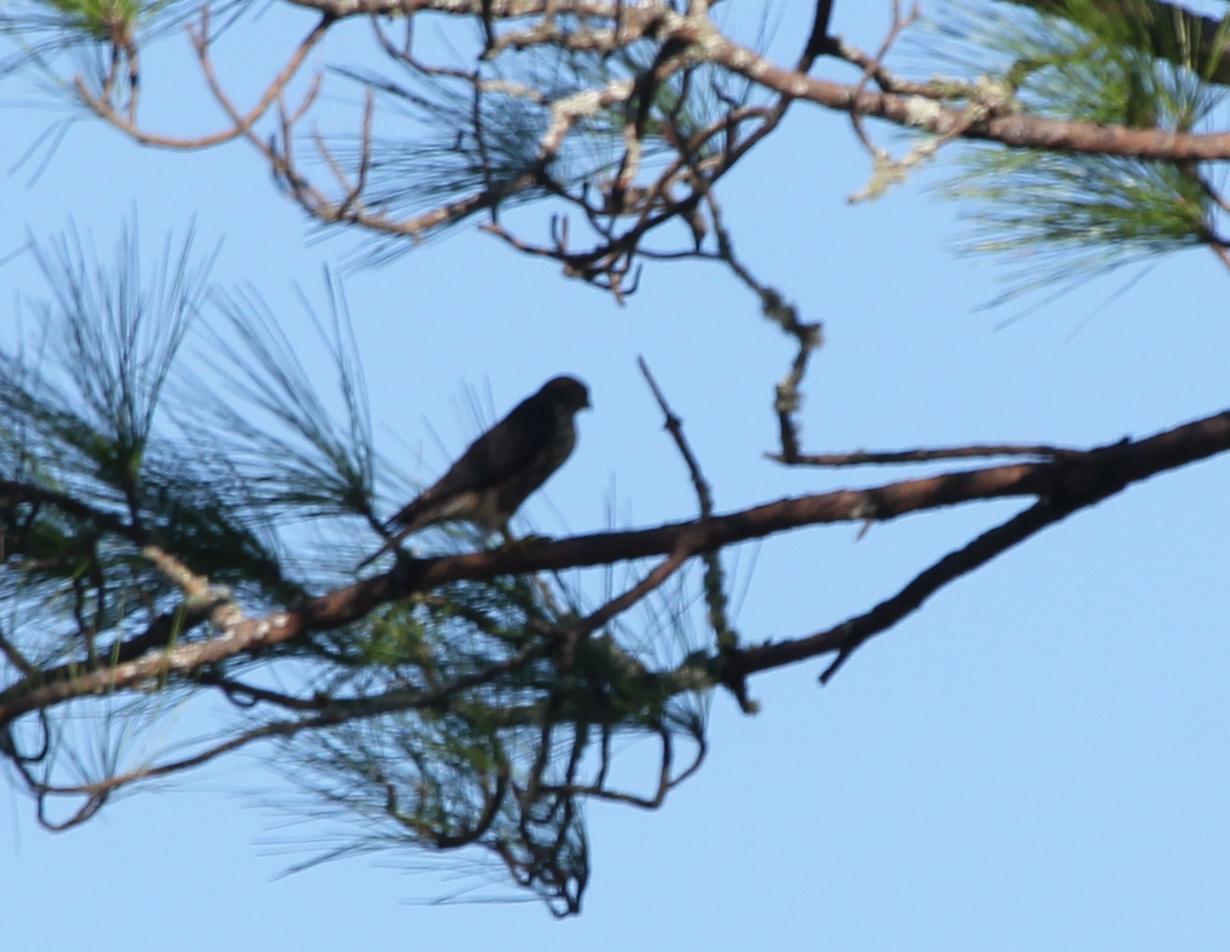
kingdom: Animalia
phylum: Chordata
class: Aves
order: Falconiformes
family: Falconidae
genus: Falco
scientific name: Falco columbarius
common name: Merlin
